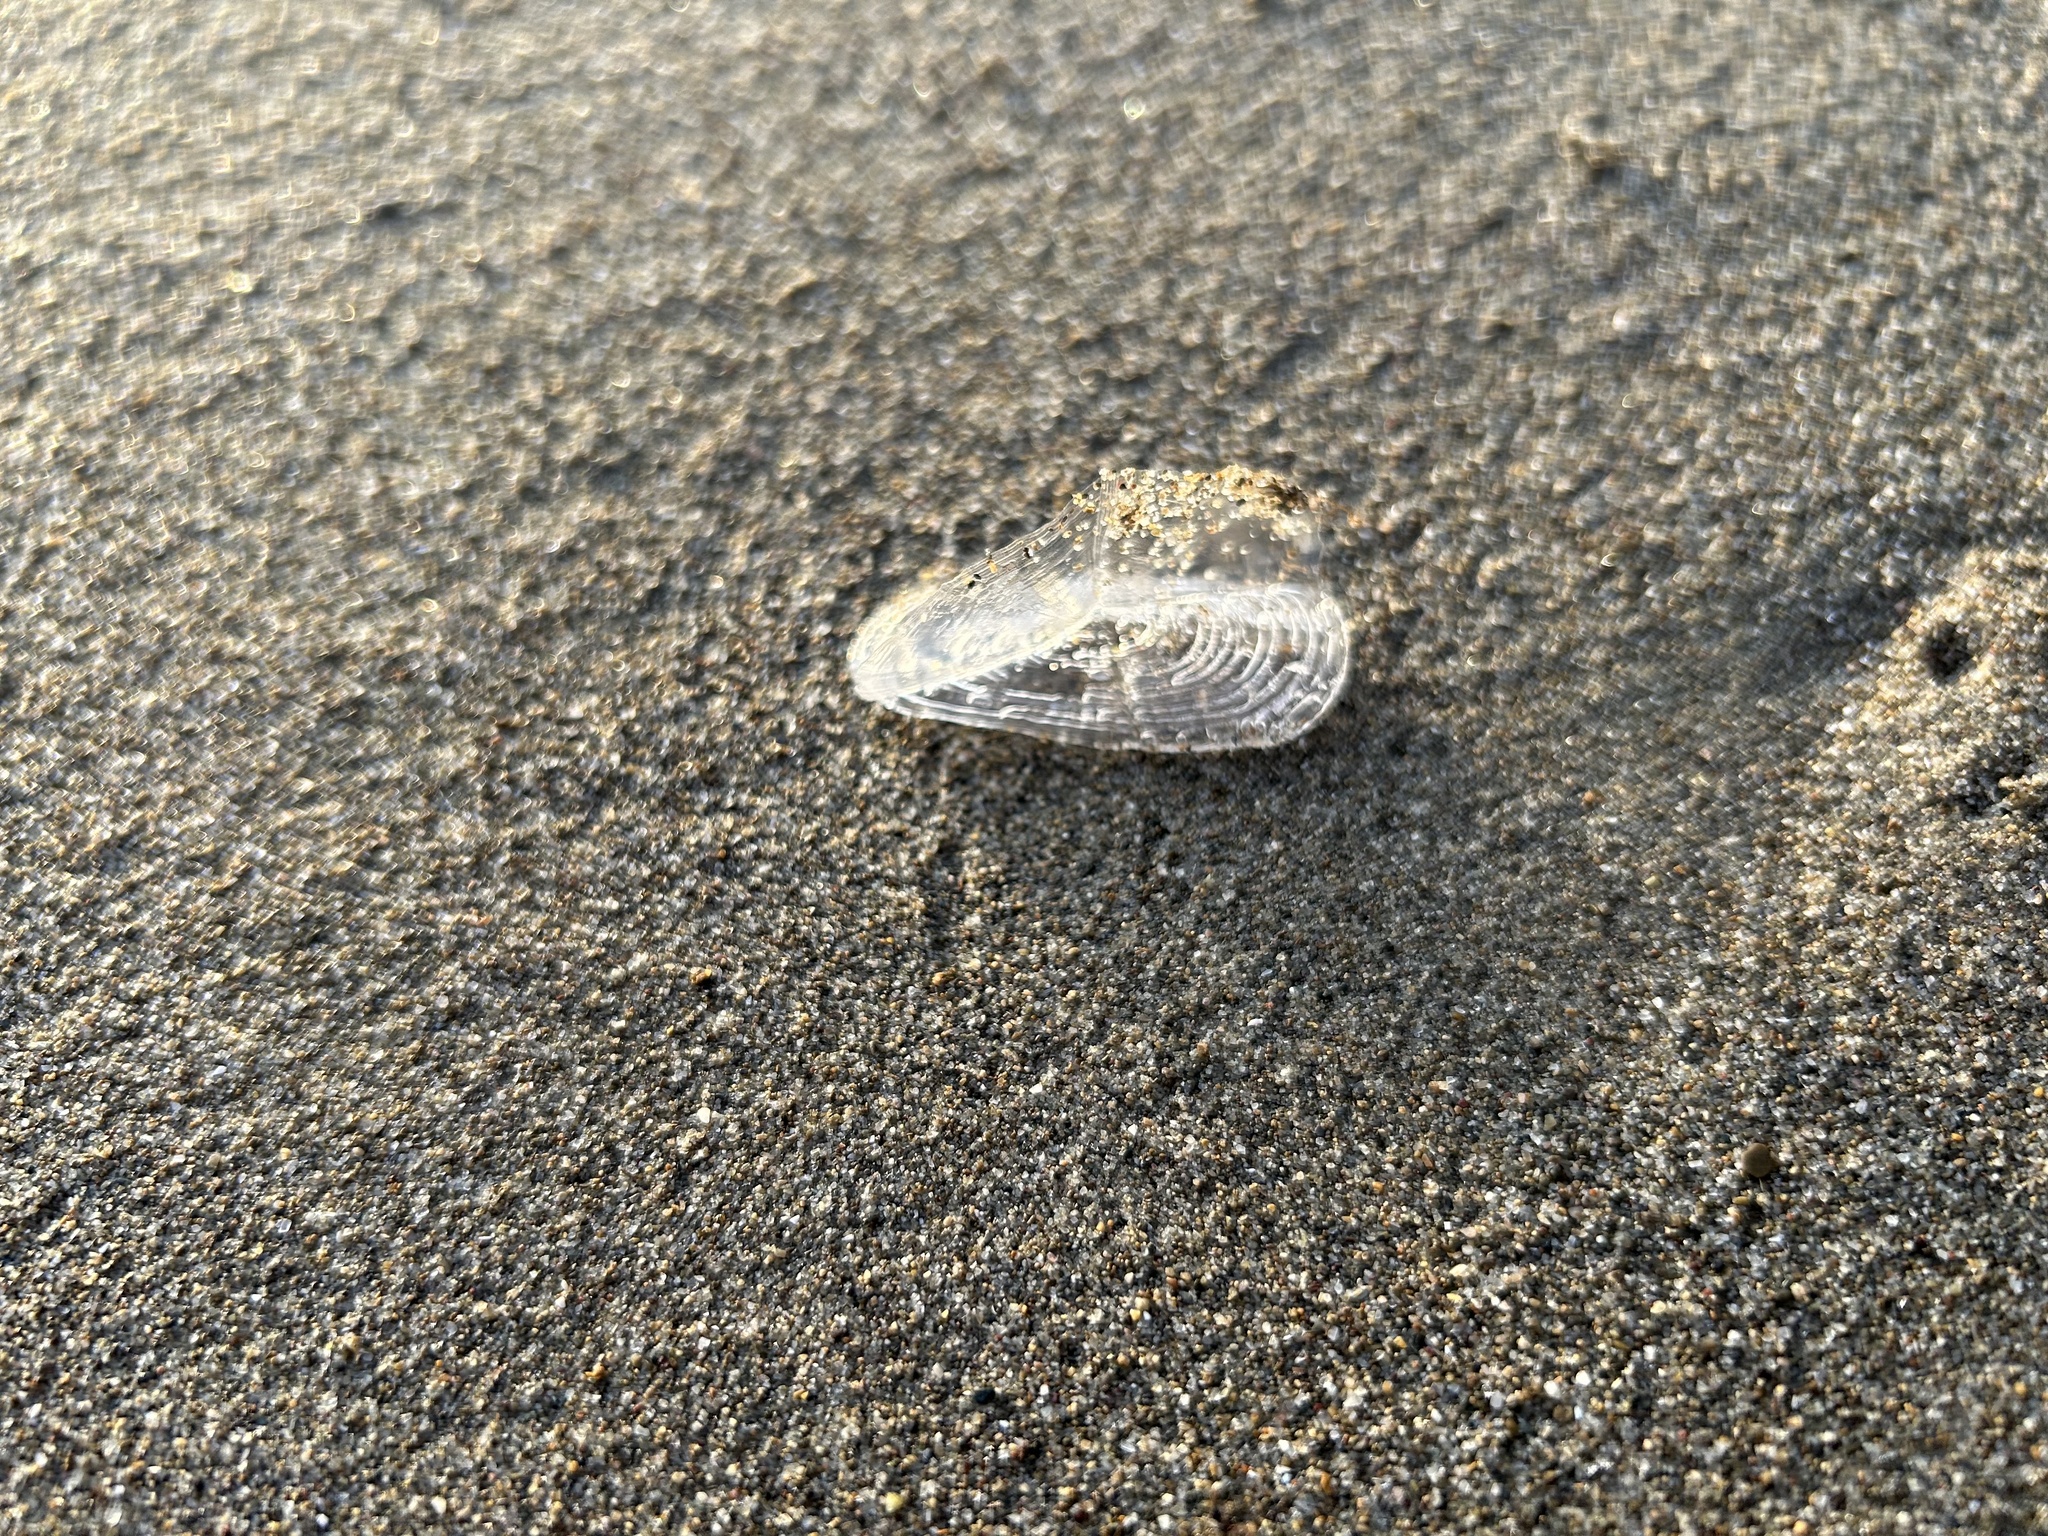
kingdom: Animalia
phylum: Cnidaria
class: Hydrozoa
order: Anthoathecata
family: Porpitidae
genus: Velella
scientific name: Velella velella
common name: By-the-wind-sailor
